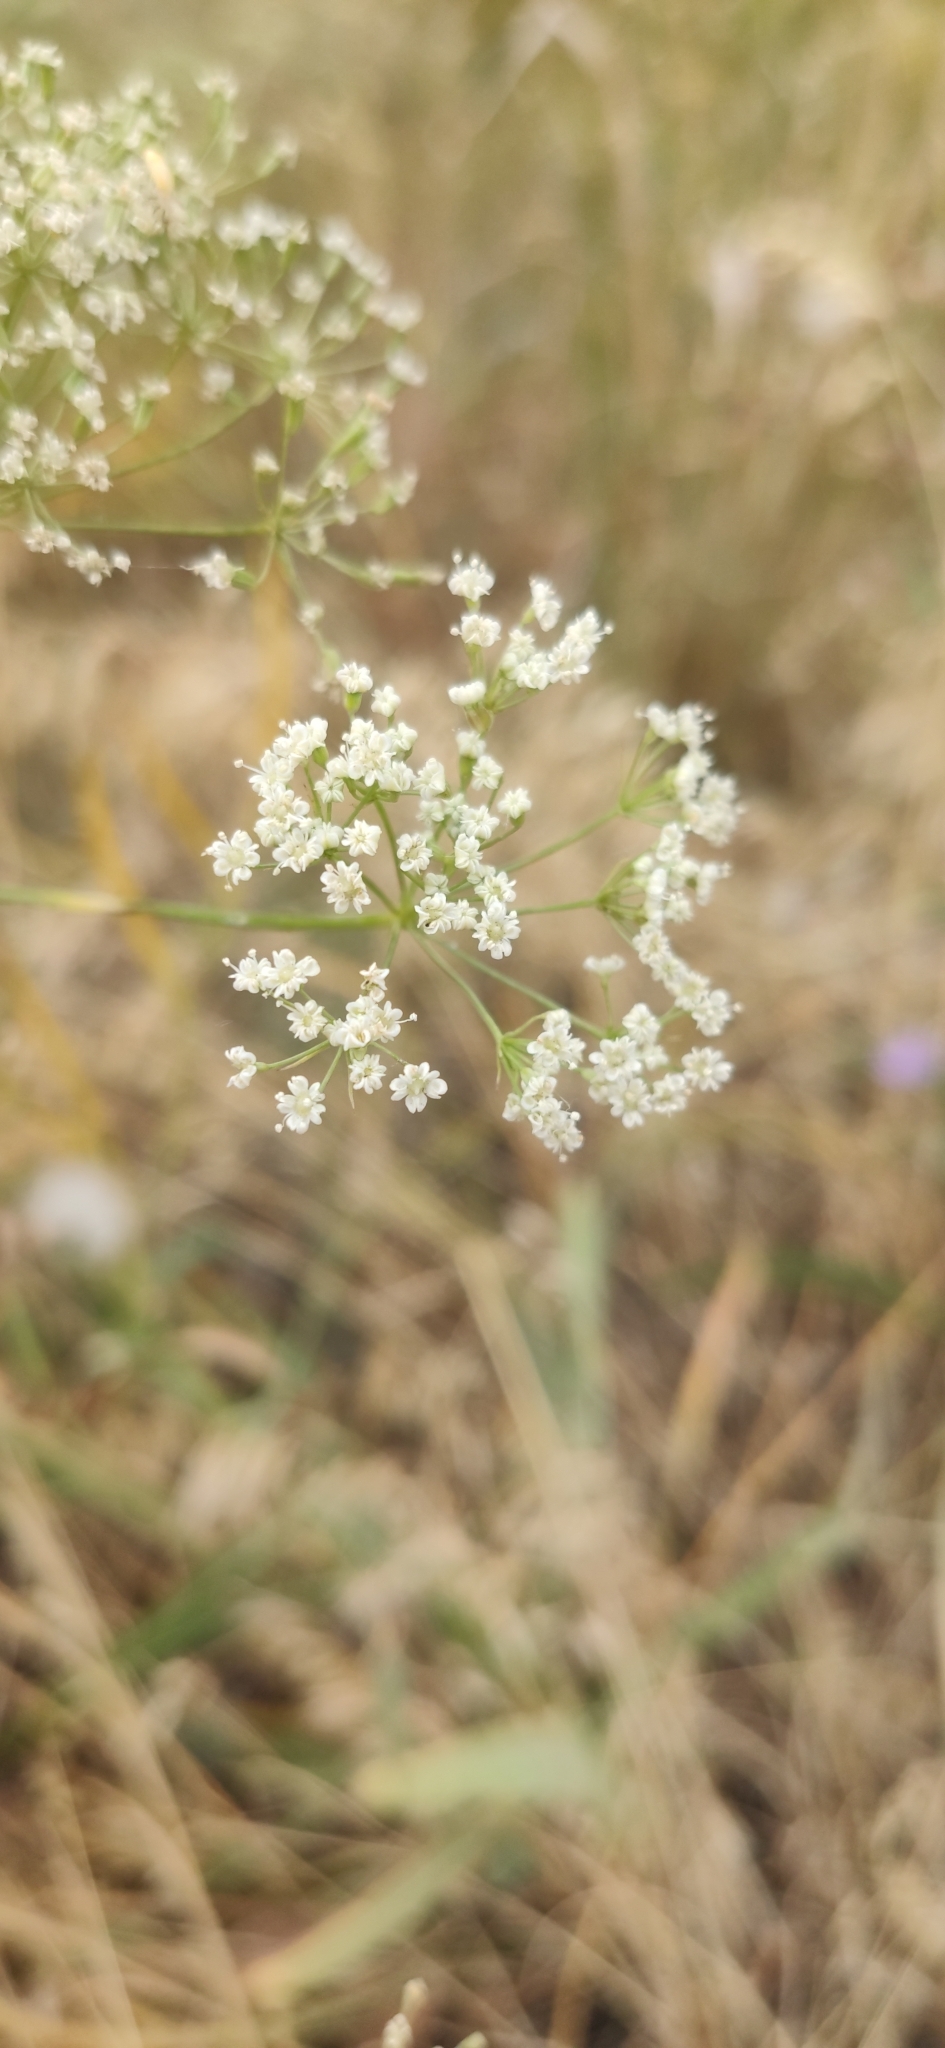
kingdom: Plantae
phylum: Tracheophyta
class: Magnoliopsida
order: Apiales
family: Apiaceae
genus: Falcaria
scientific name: Falcaria vulgaris
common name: Longleaf
